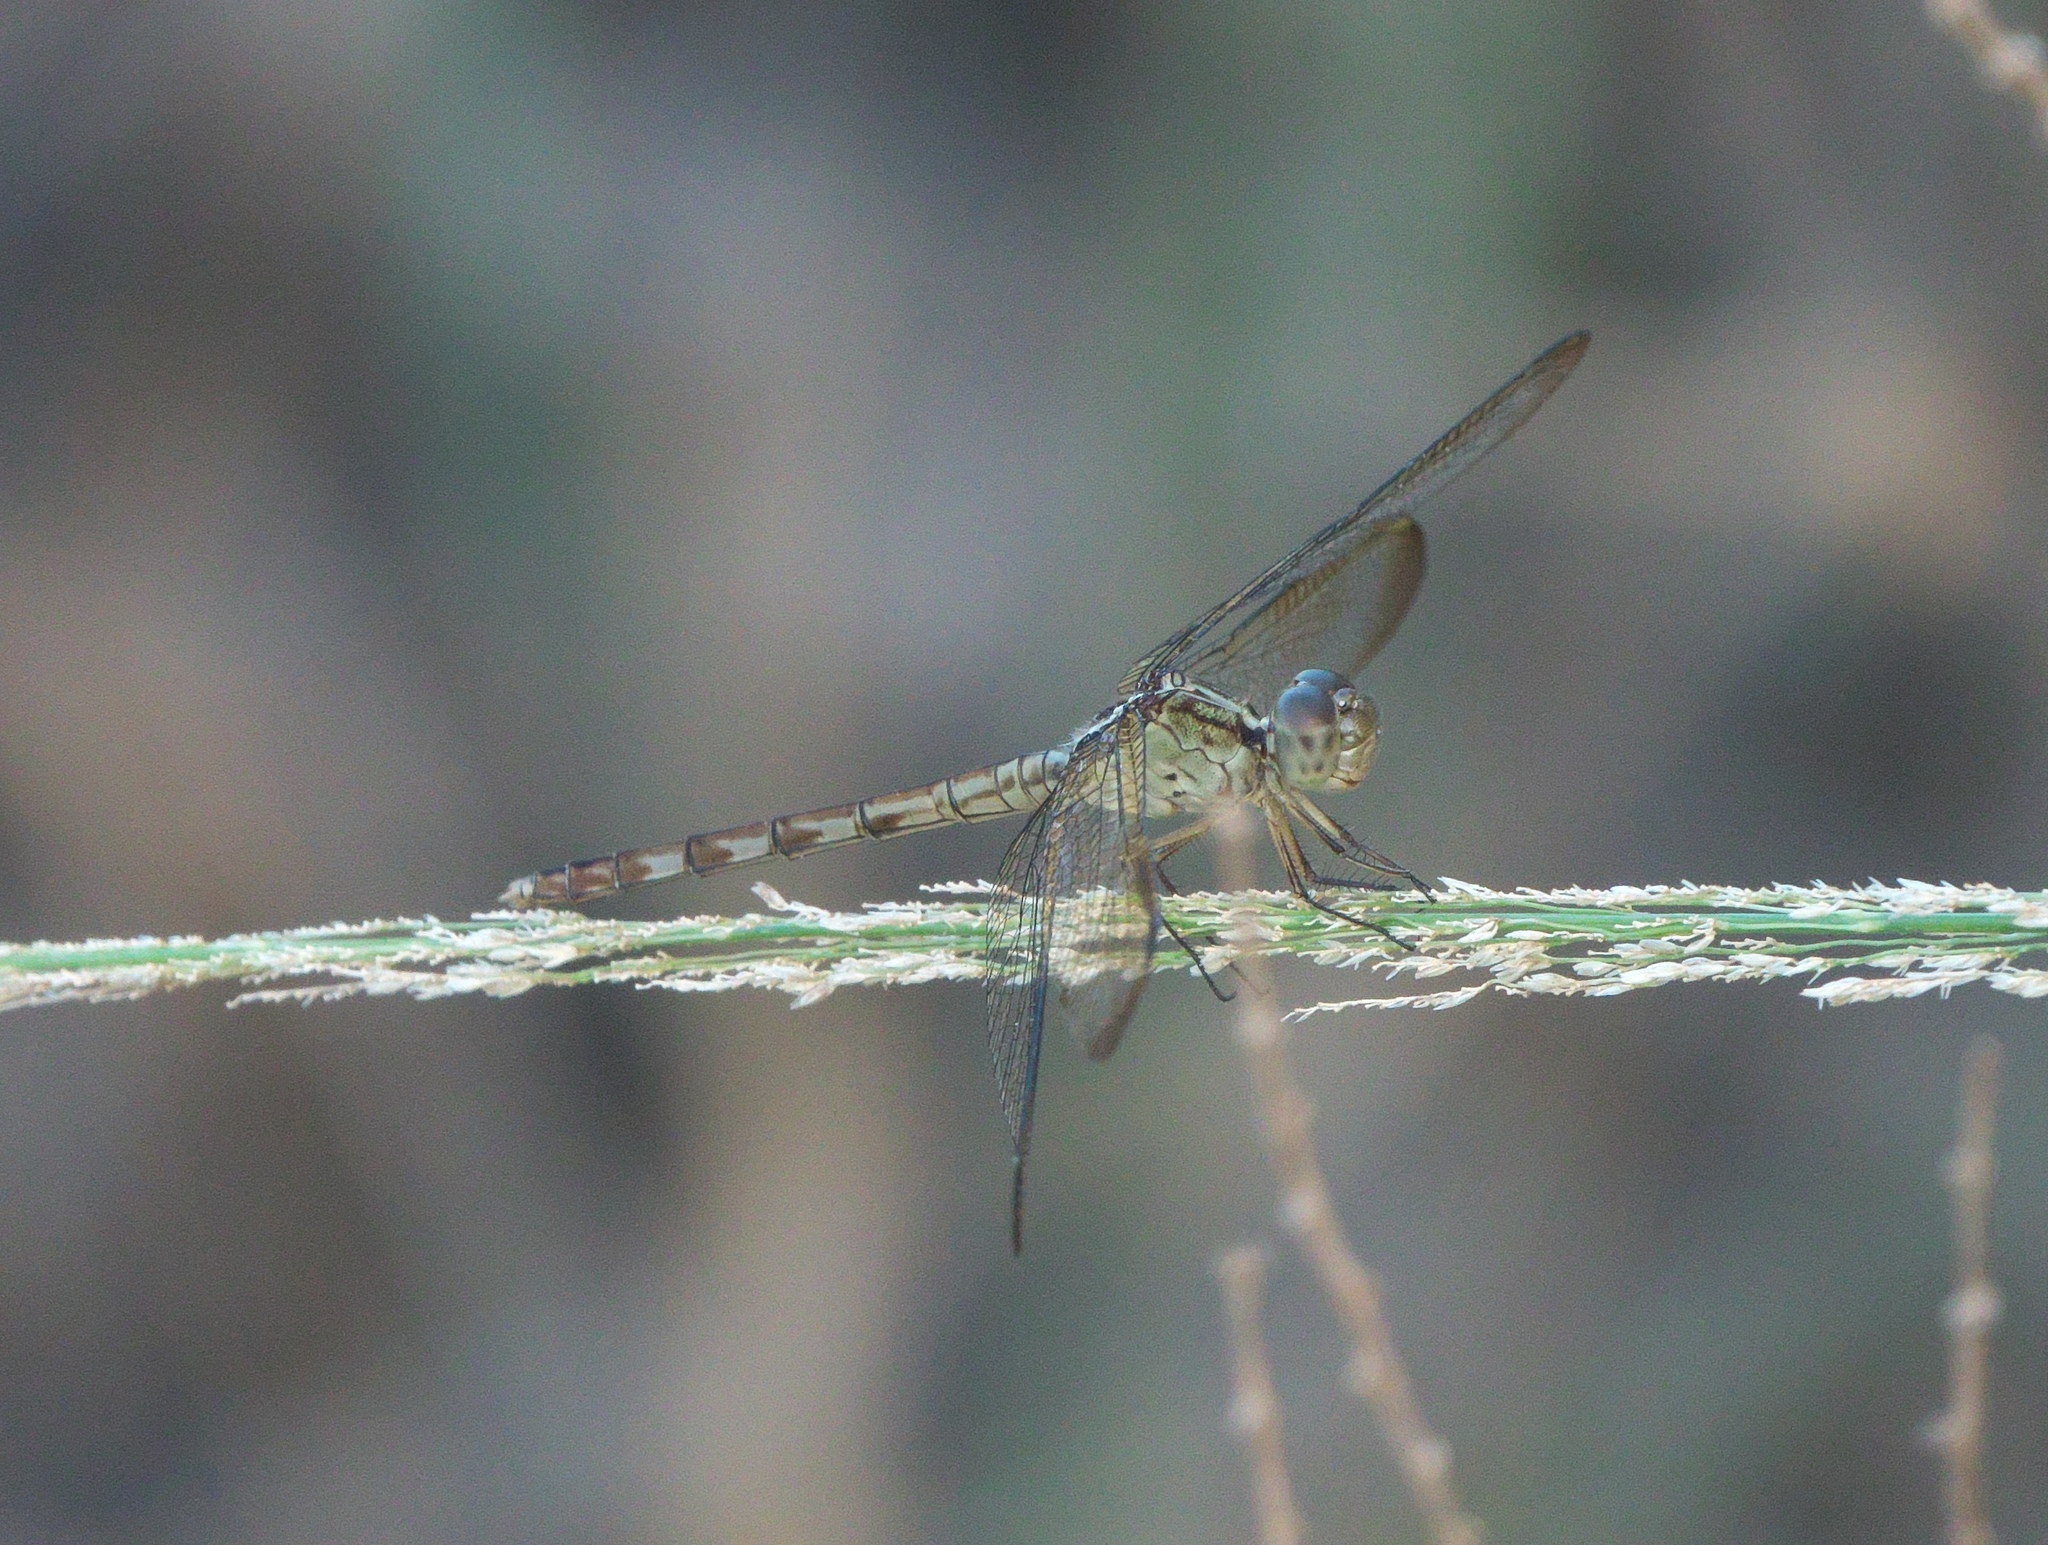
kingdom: Animalia
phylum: Arthropoda
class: Insecta
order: Odonata
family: Libellulidae
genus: Erythemis
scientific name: Erythemis vesiculosa
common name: Great pondhawk
